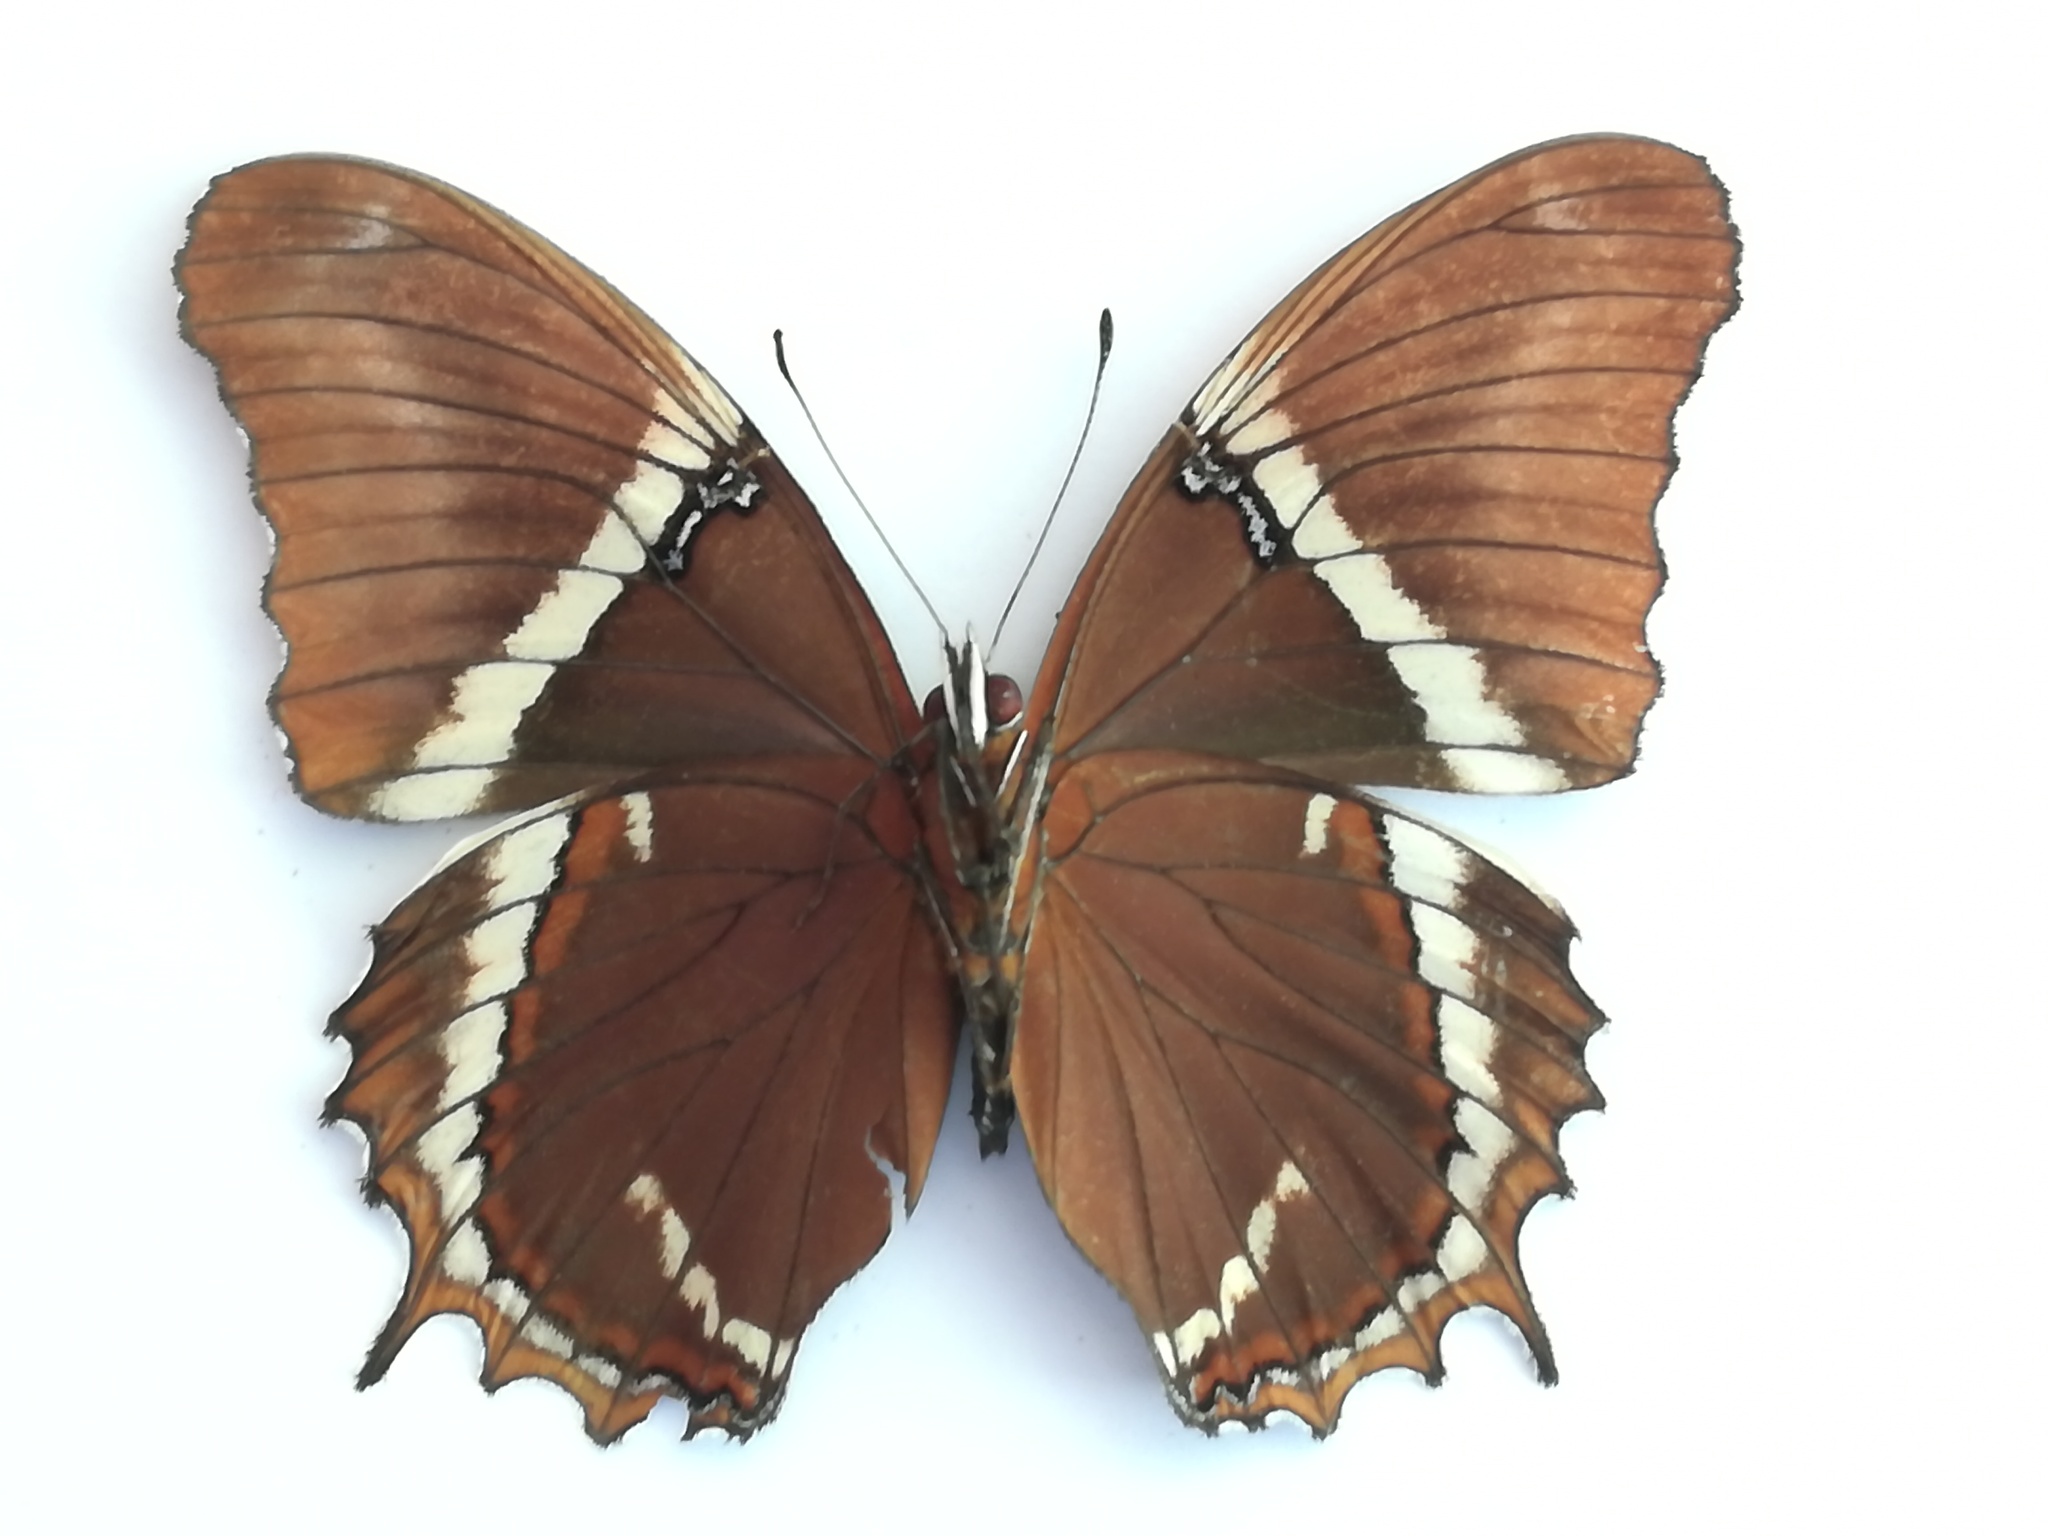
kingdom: Animalia
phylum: Arthropoda
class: Insecta
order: Lepidoptera
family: Nymphalidae
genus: Siproeta
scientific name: Siproeta epaphus
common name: Rusty-tipped page
